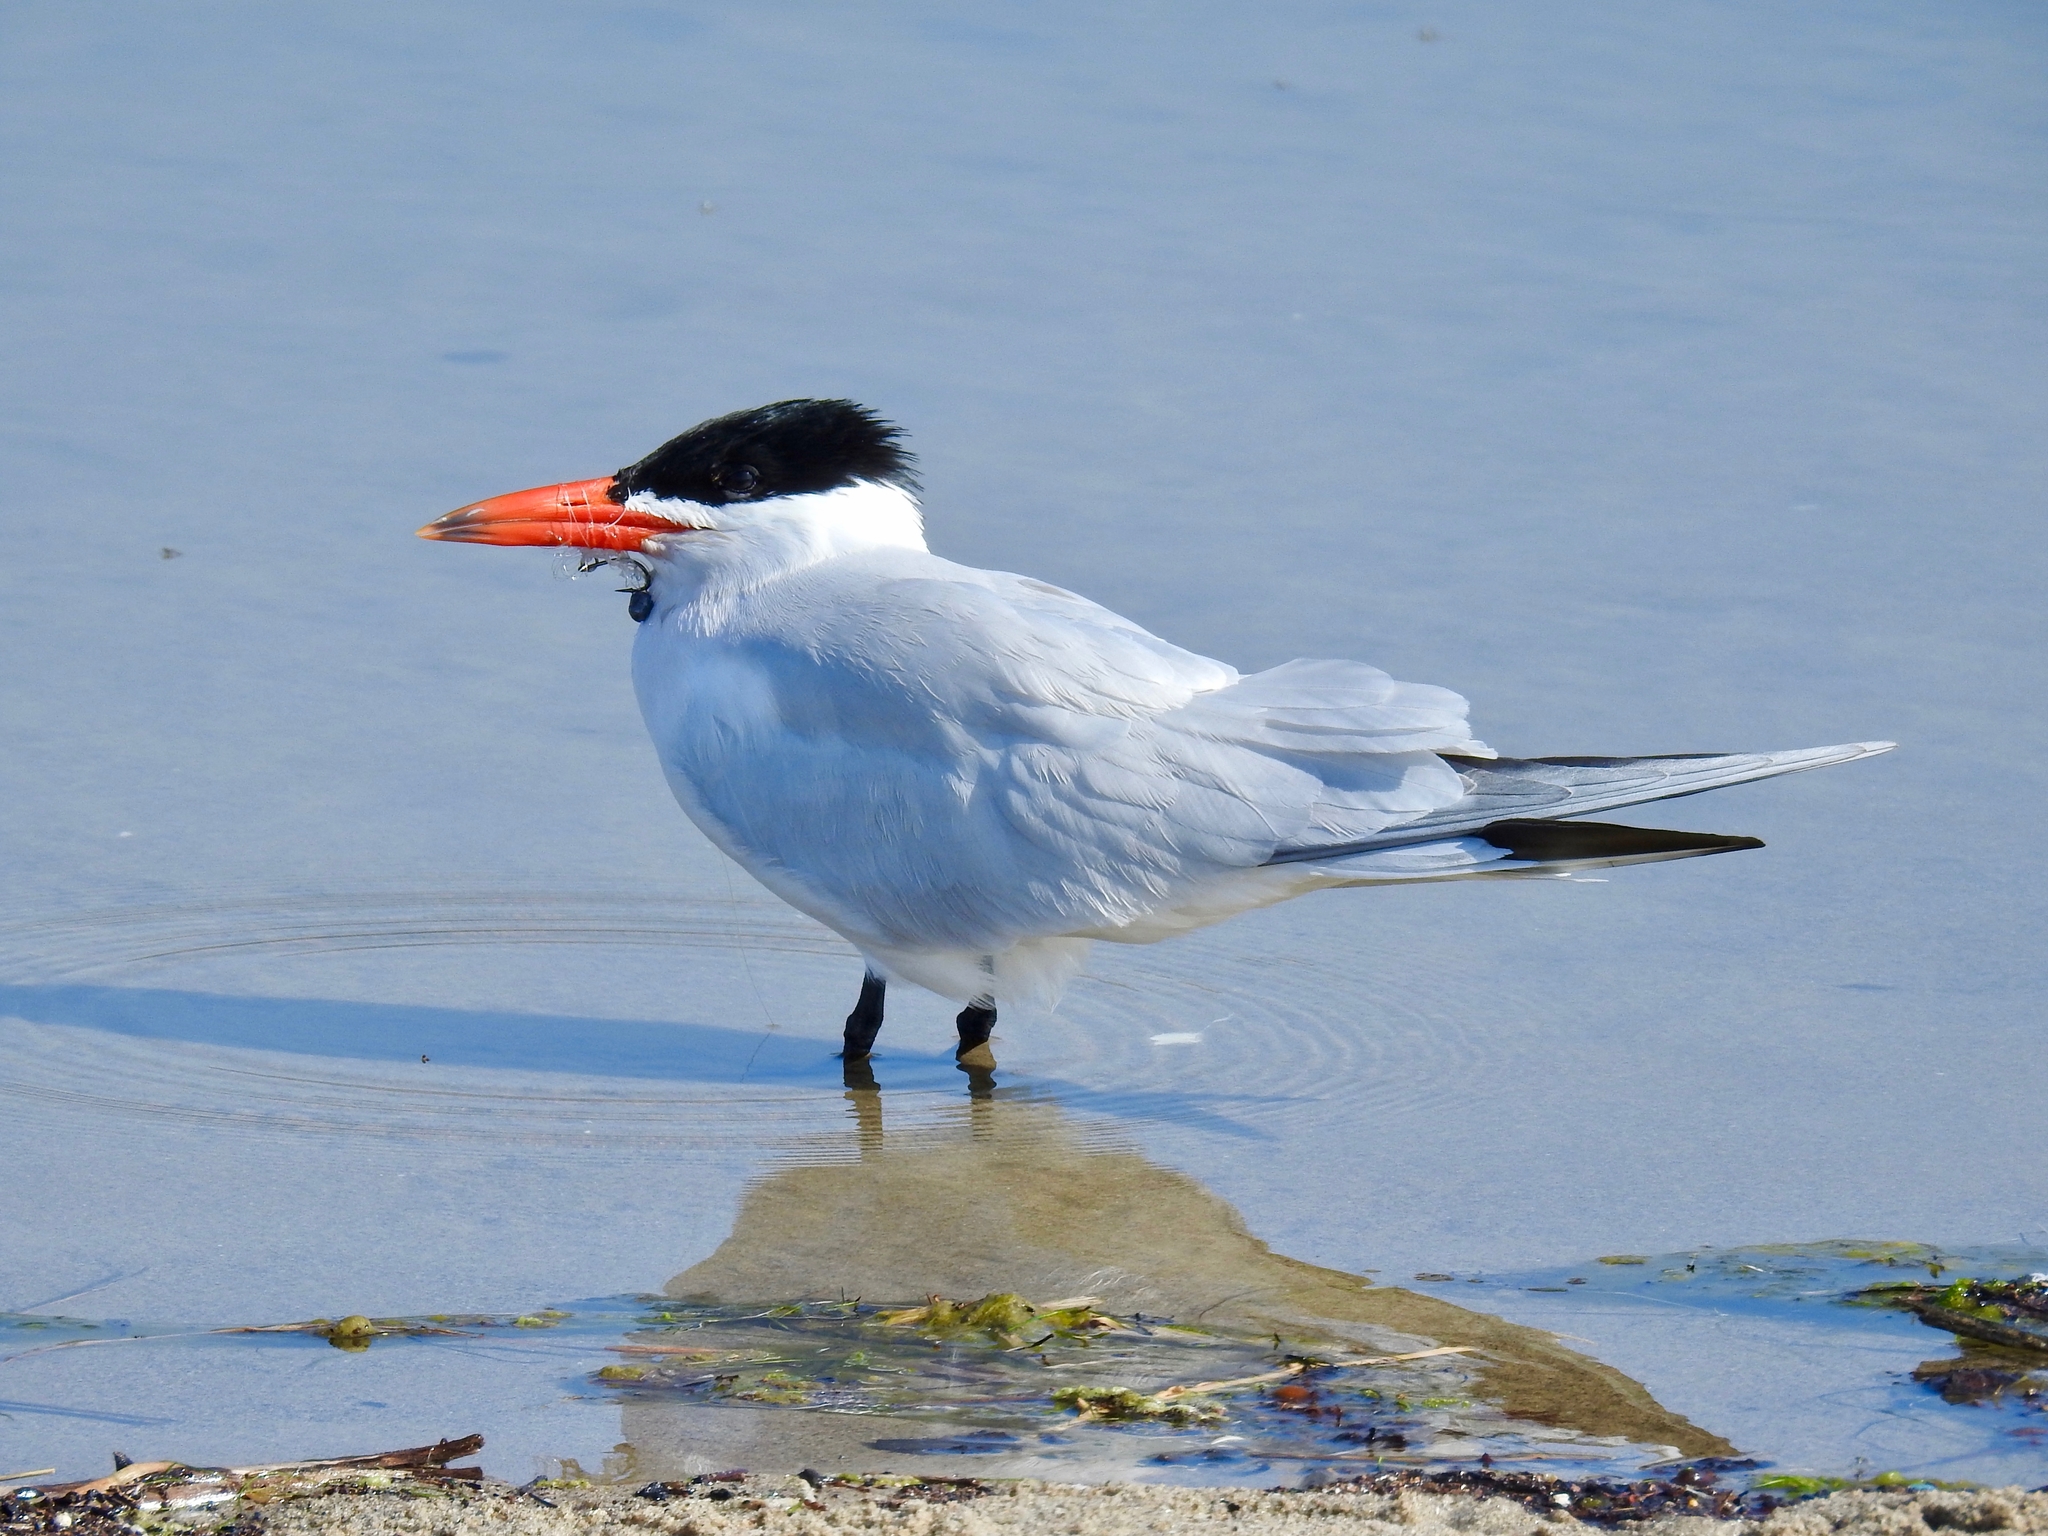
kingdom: Animalia
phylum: Chordata
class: Aves
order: Charadriiformes
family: Laridae
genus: Hydroprogne
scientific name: Hydroprogne caspia
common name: Caspian tern
